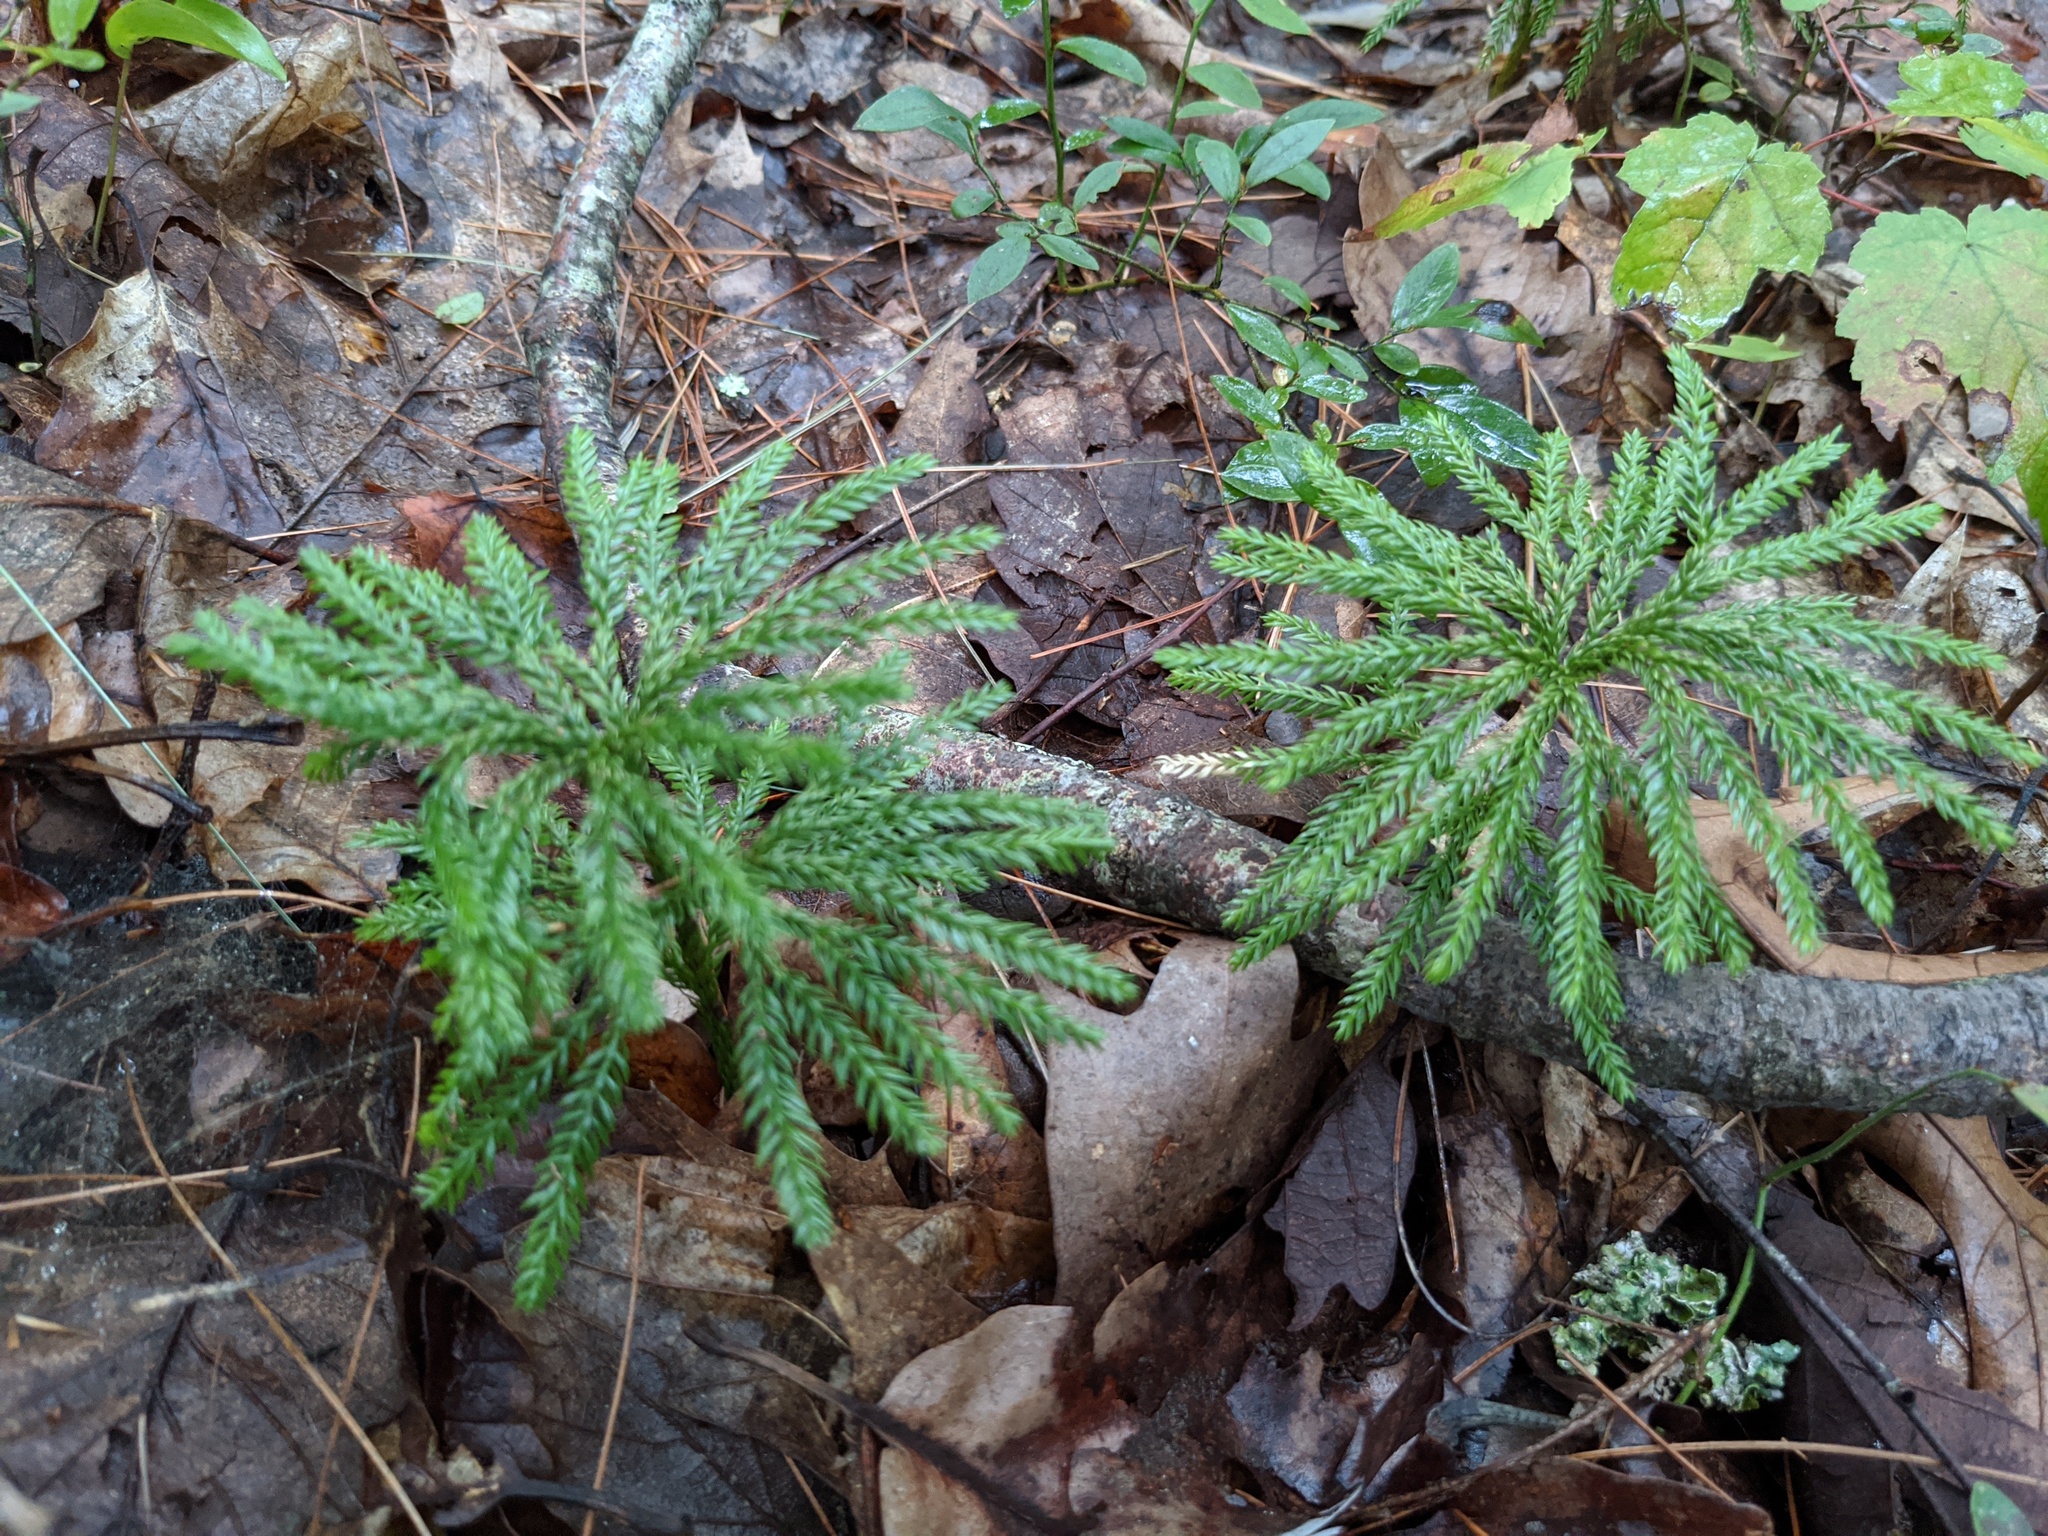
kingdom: Plantae
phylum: Tracheophyta
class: Lycopodiopsida
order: Lycopodiales
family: Lycopodiaceae
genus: Dendrolycopodium
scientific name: Dendrolycopodium obscurum
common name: Common ground-pine
